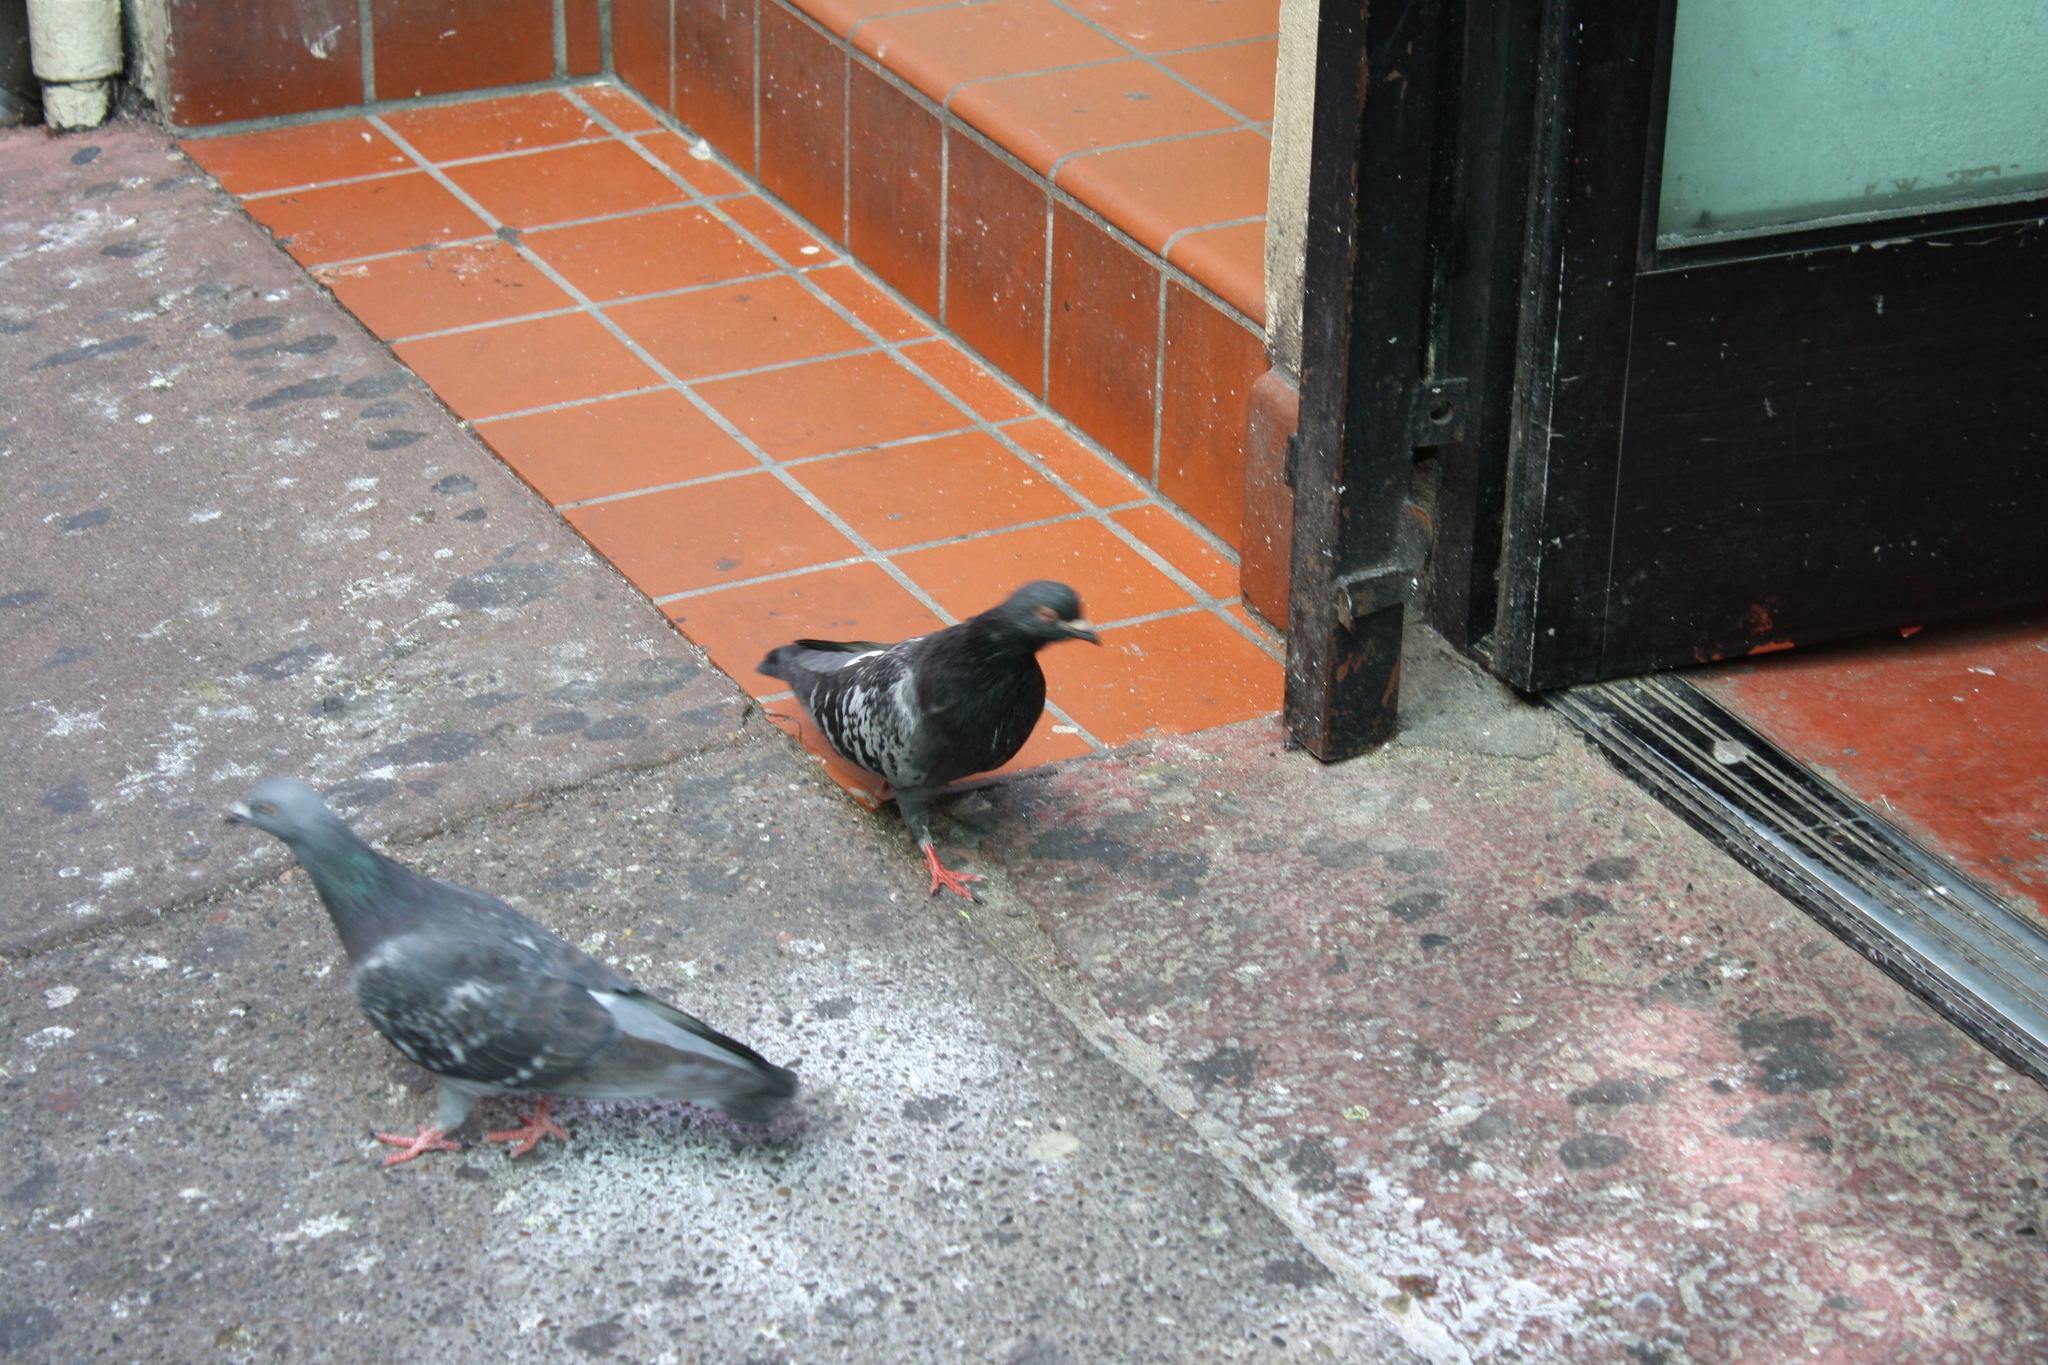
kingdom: Animalia
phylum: Chordata
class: Aves
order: Columbiformes
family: Columbidae
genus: Columba
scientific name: Columba livia
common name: Rock pigeon
